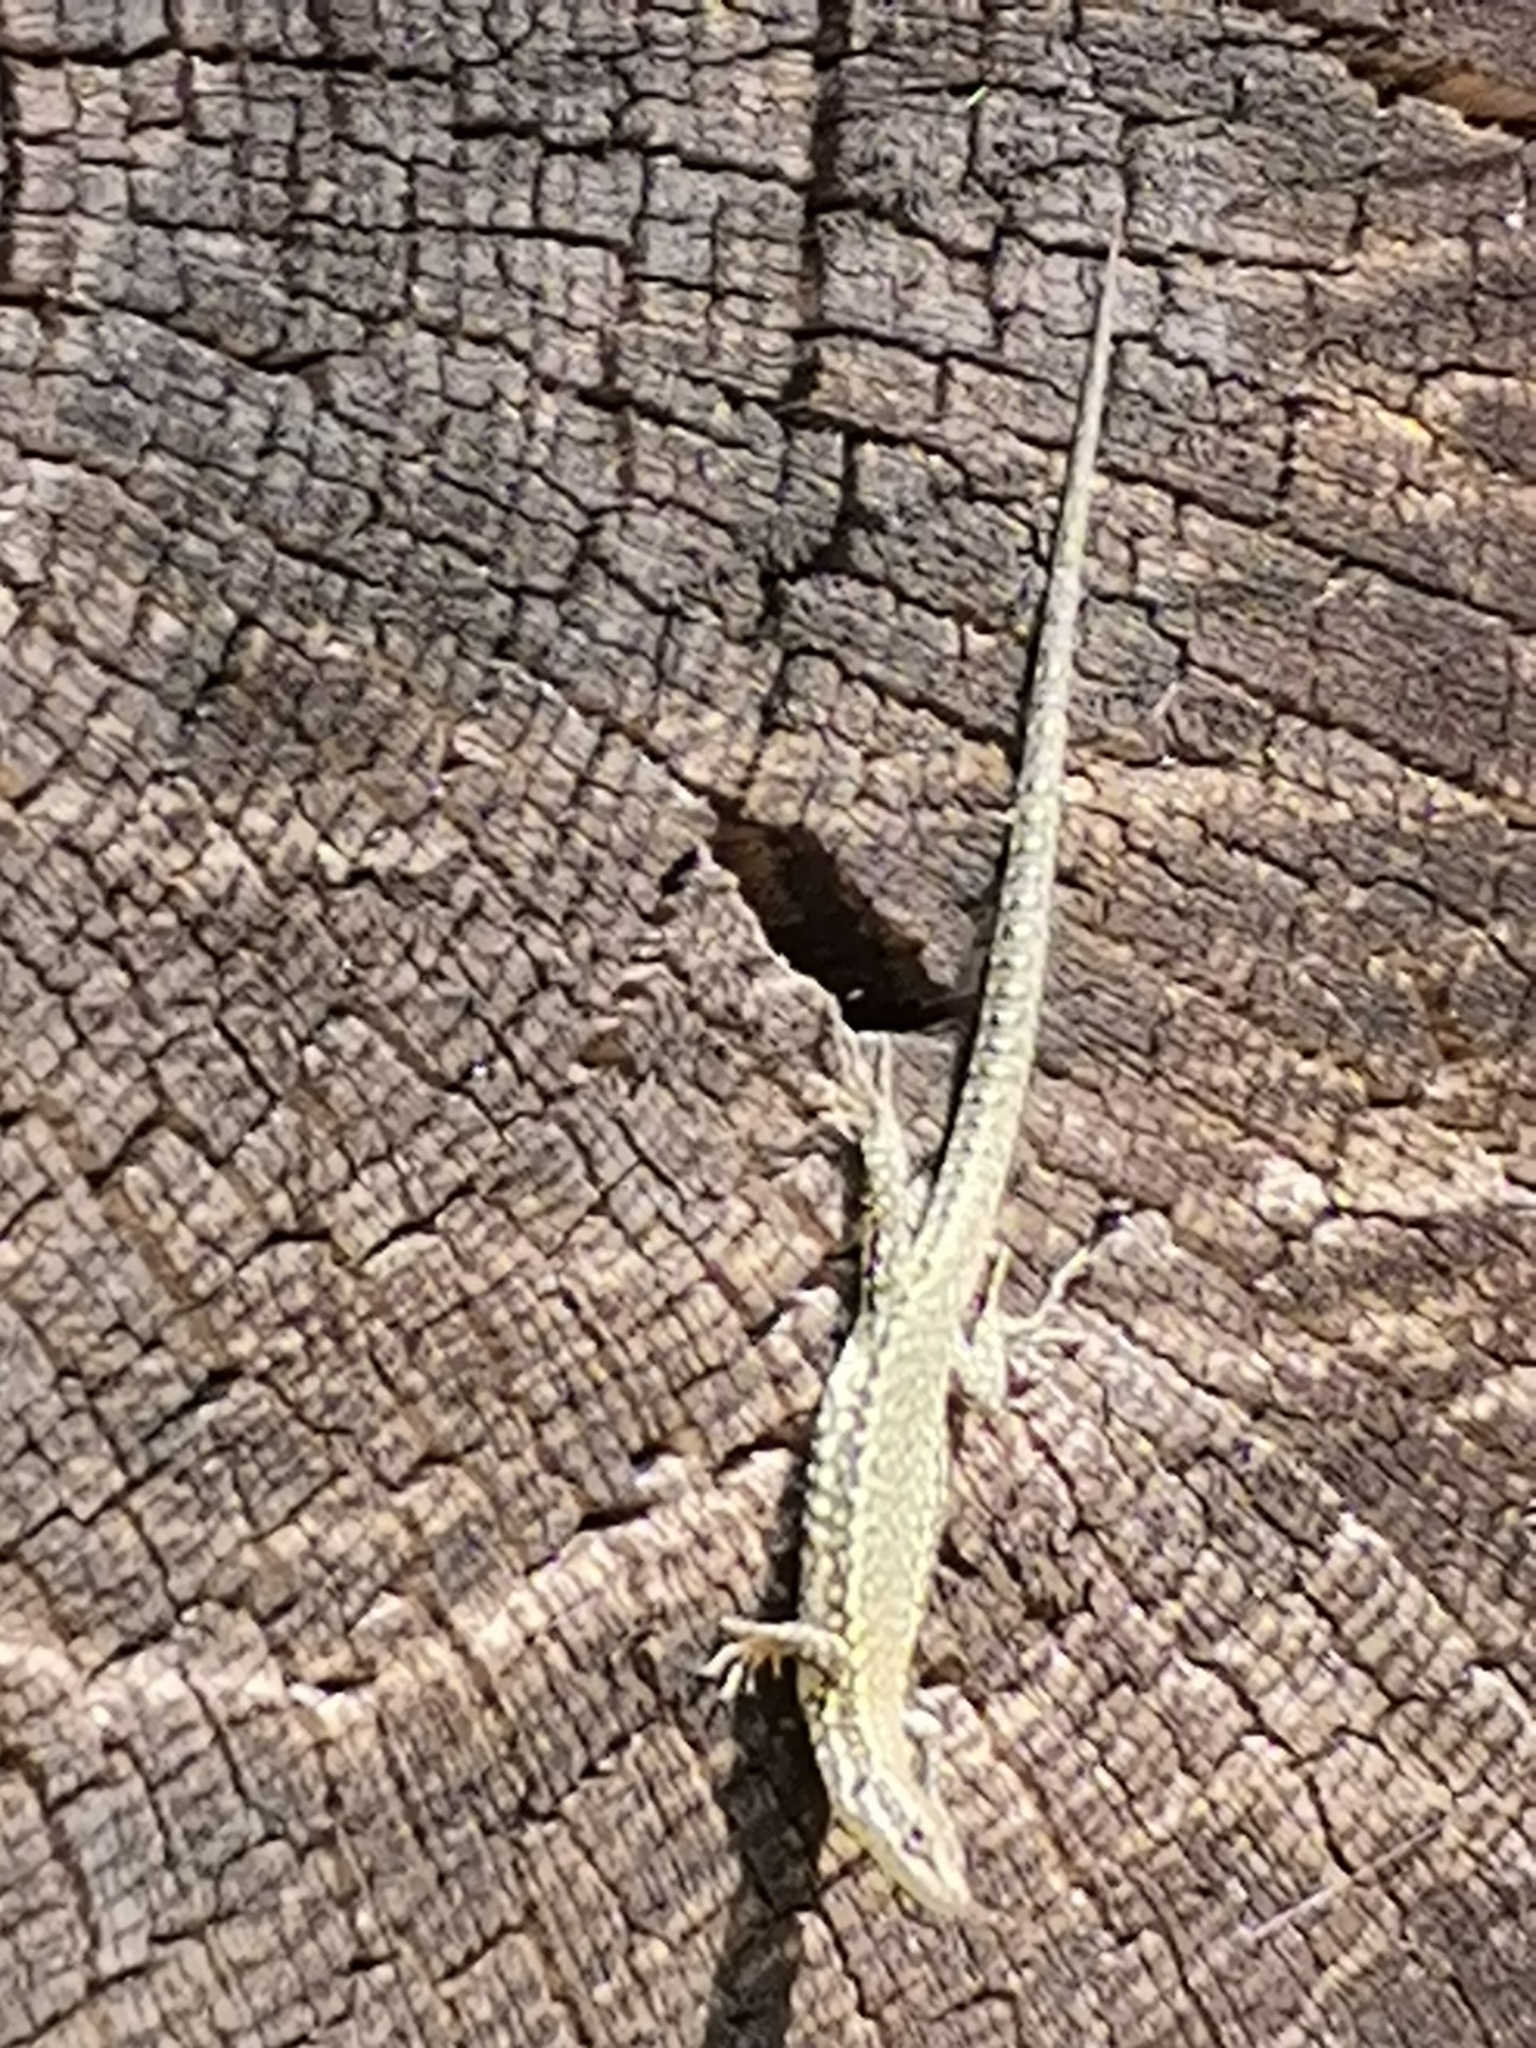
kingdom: Animalia
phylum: Chordata
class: Squamata
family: Lacertidae
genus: Podarcis
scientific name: Podarcis muralis
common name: Common wall lizard
